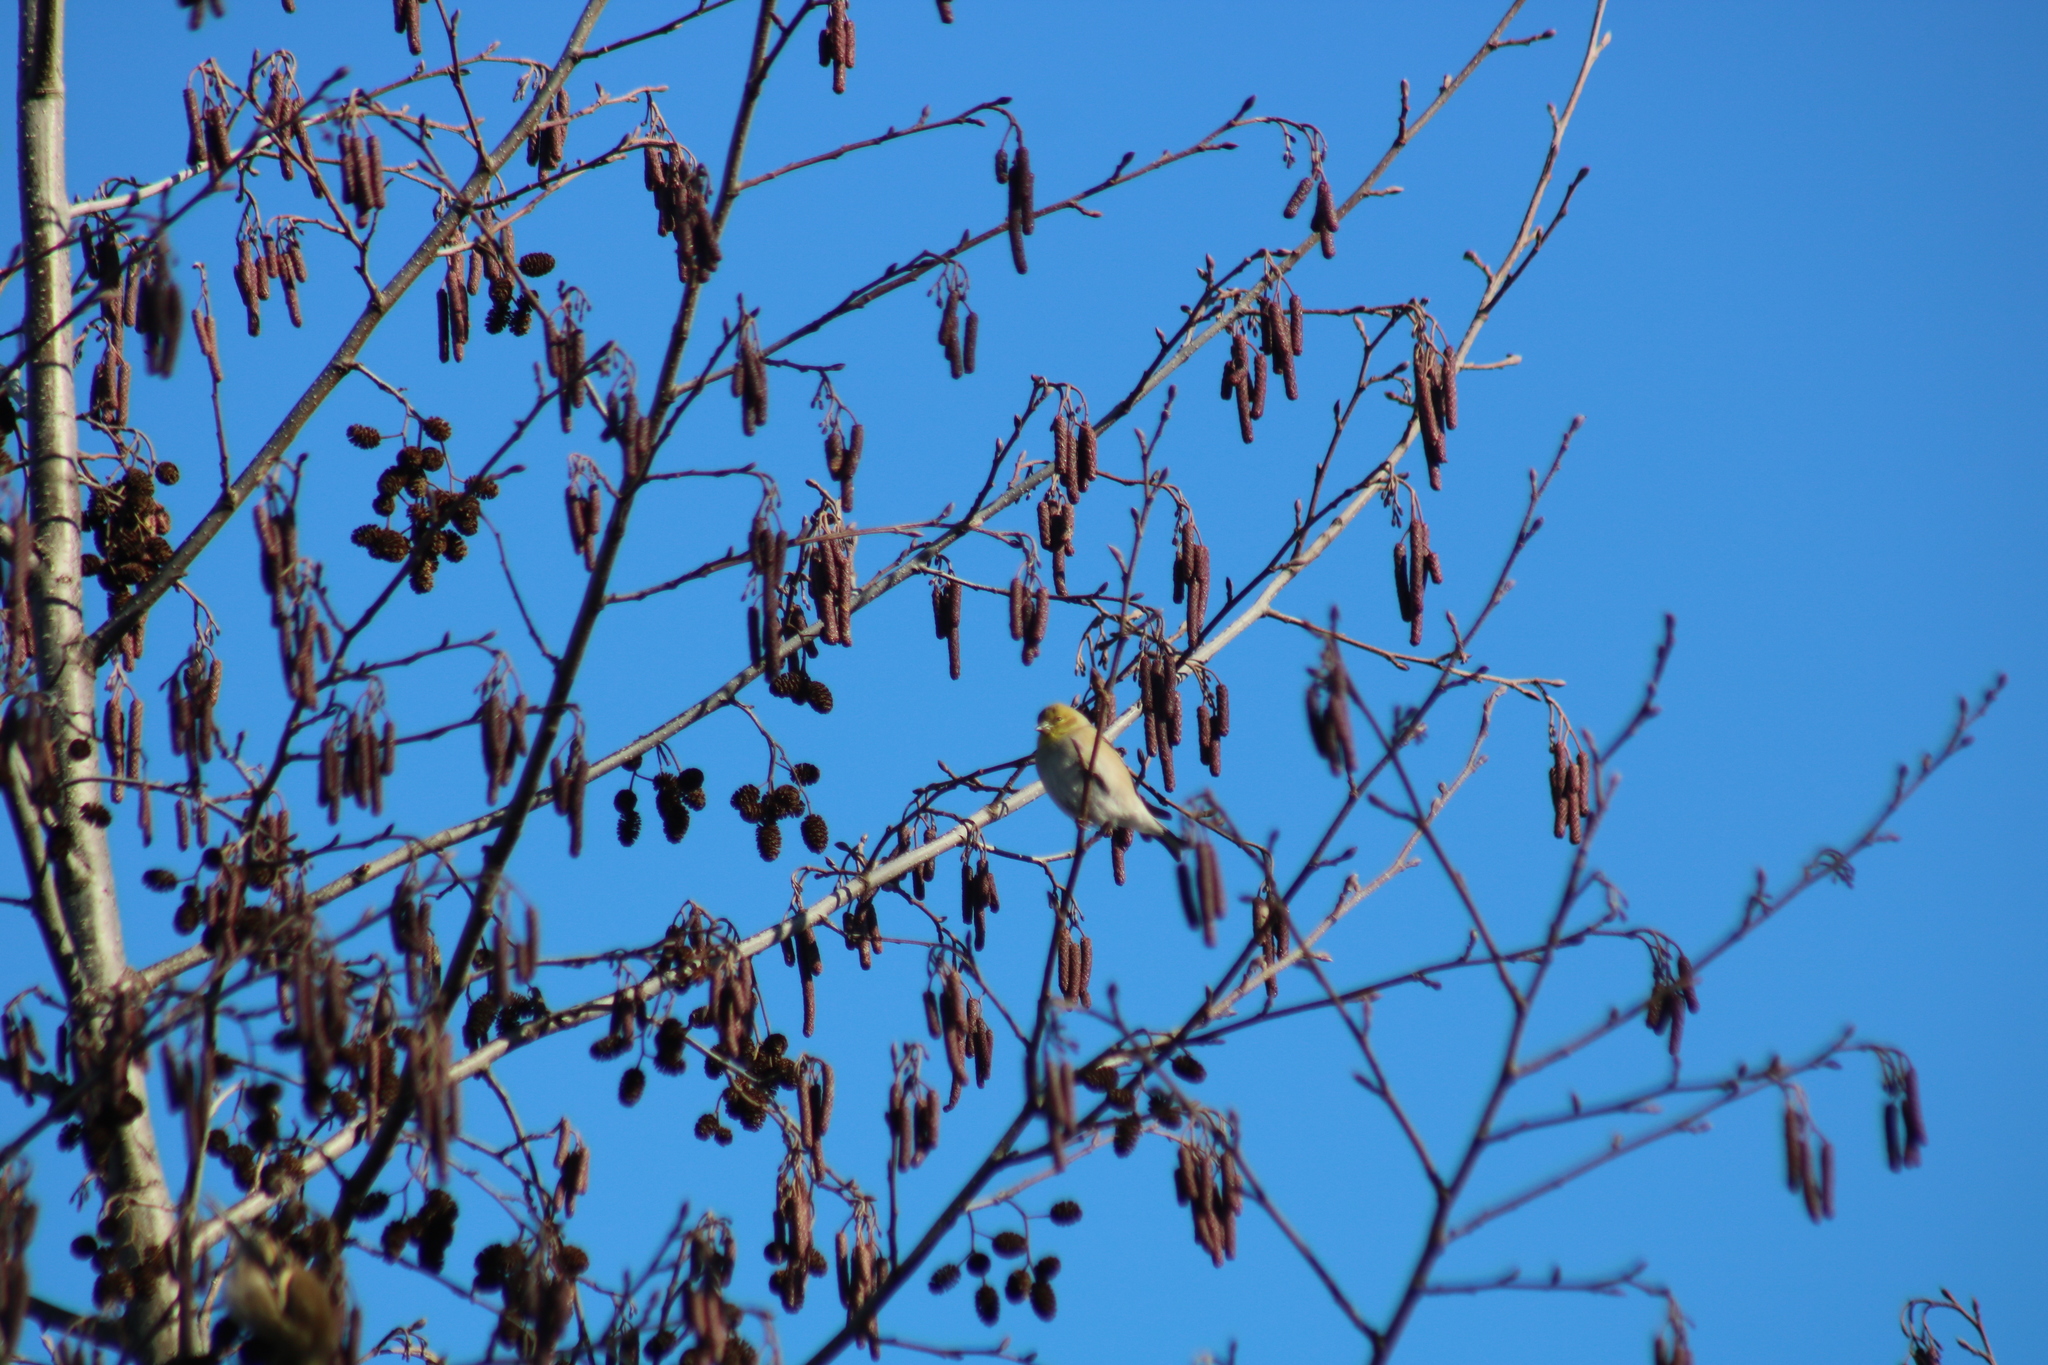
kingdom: Animalia
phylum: Chordata
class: Aves
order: Passeriformes
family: Fringillidae
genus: Spinus
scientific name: Spinus tristis
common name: American goldfinch
